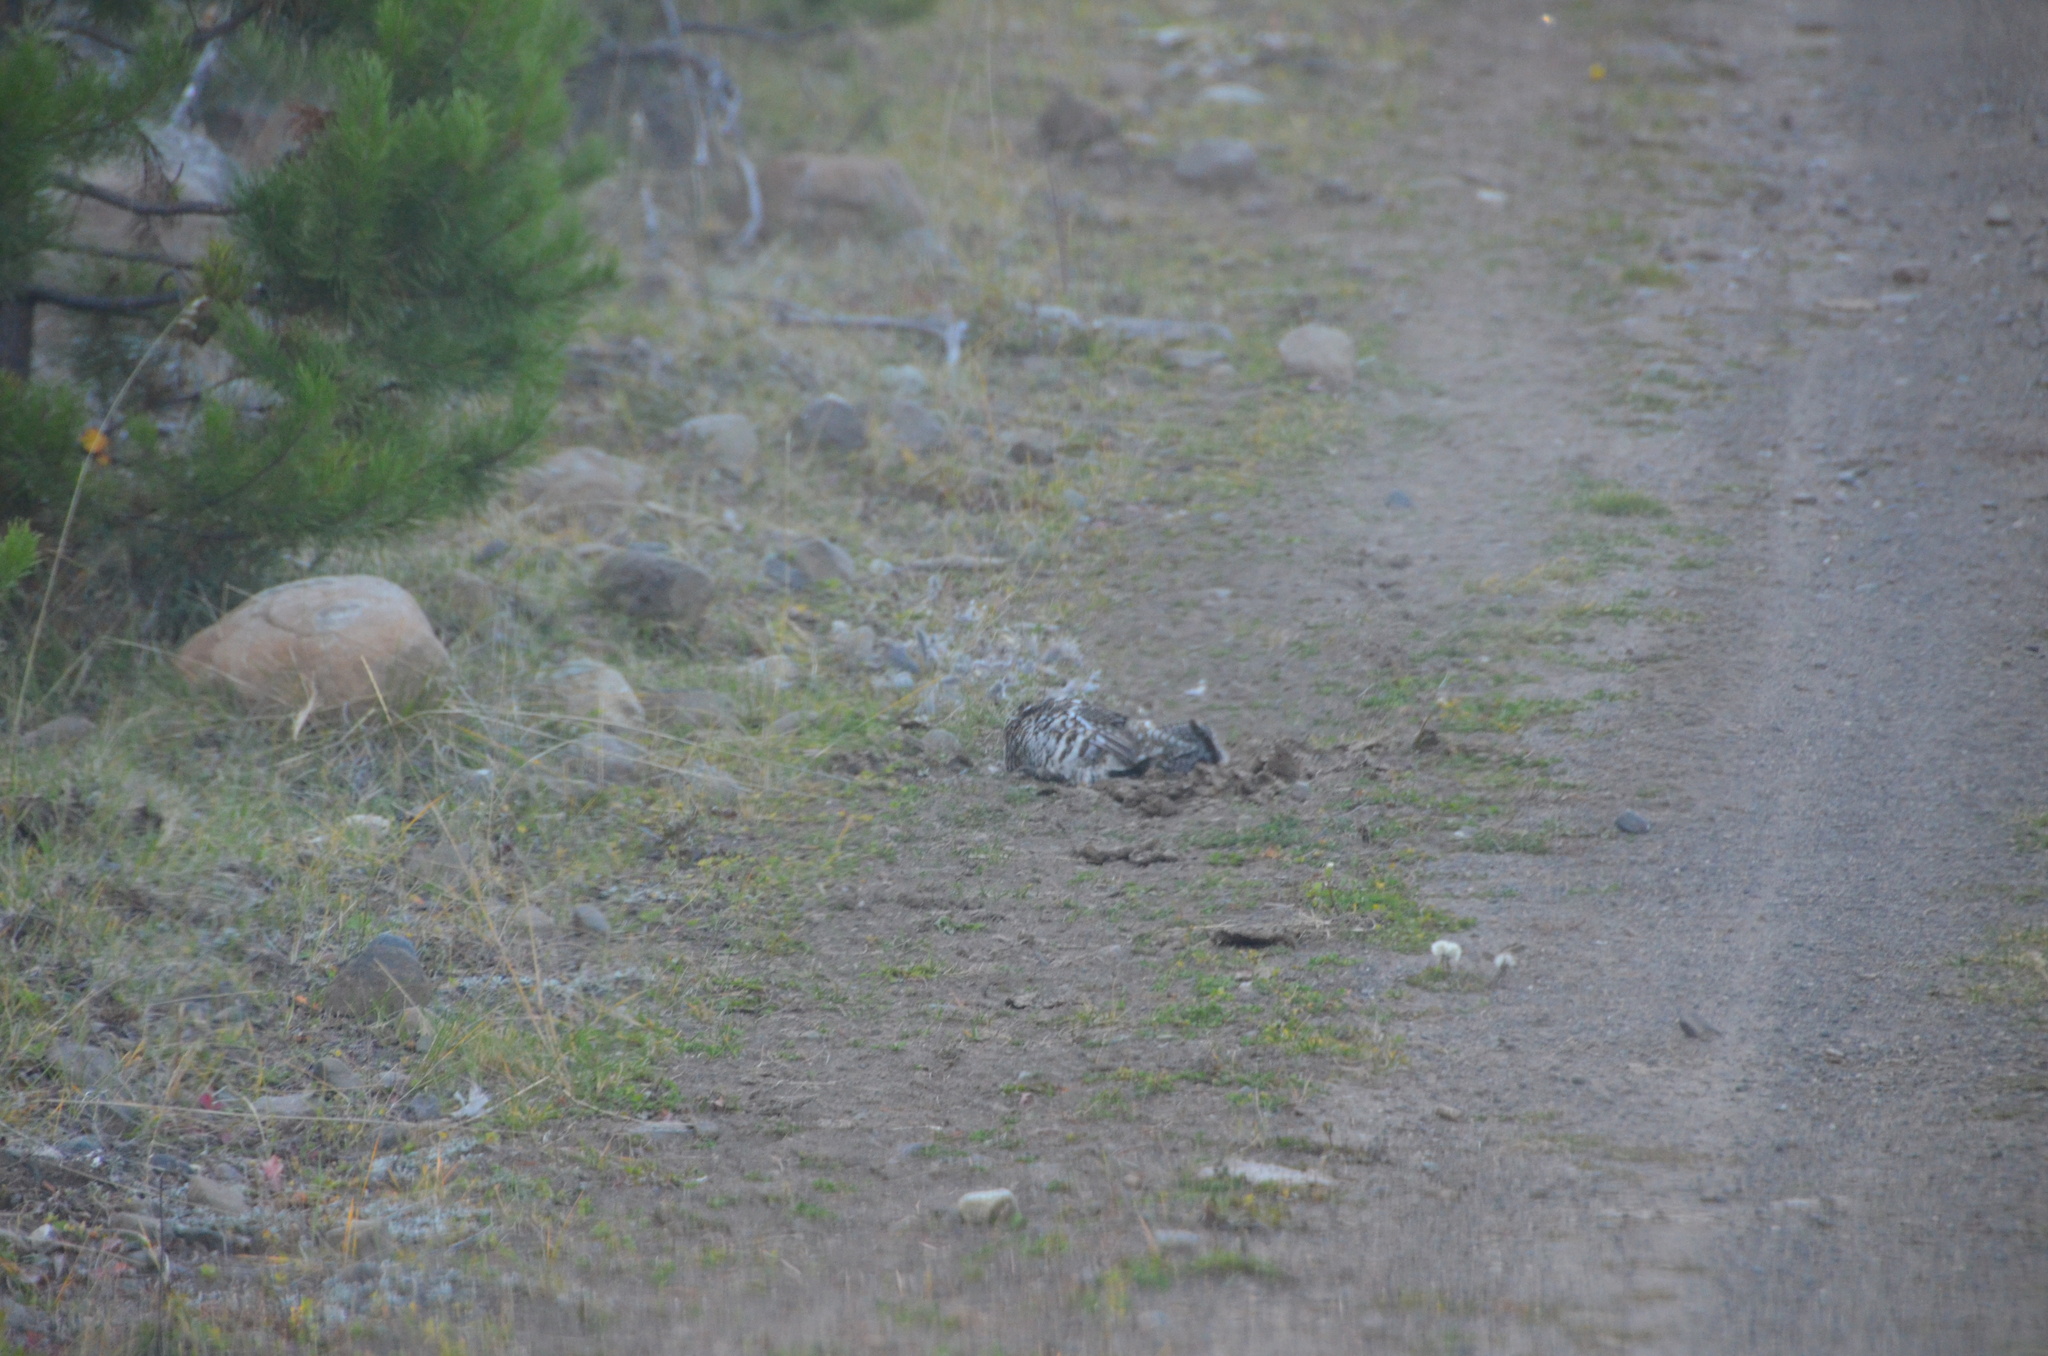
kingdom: Animalia
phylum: Chordata
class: Aves
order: Galliformes
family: Phasianidae
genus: Bonasa
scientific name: Bonasa umbellus
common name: Ruffed grouse
